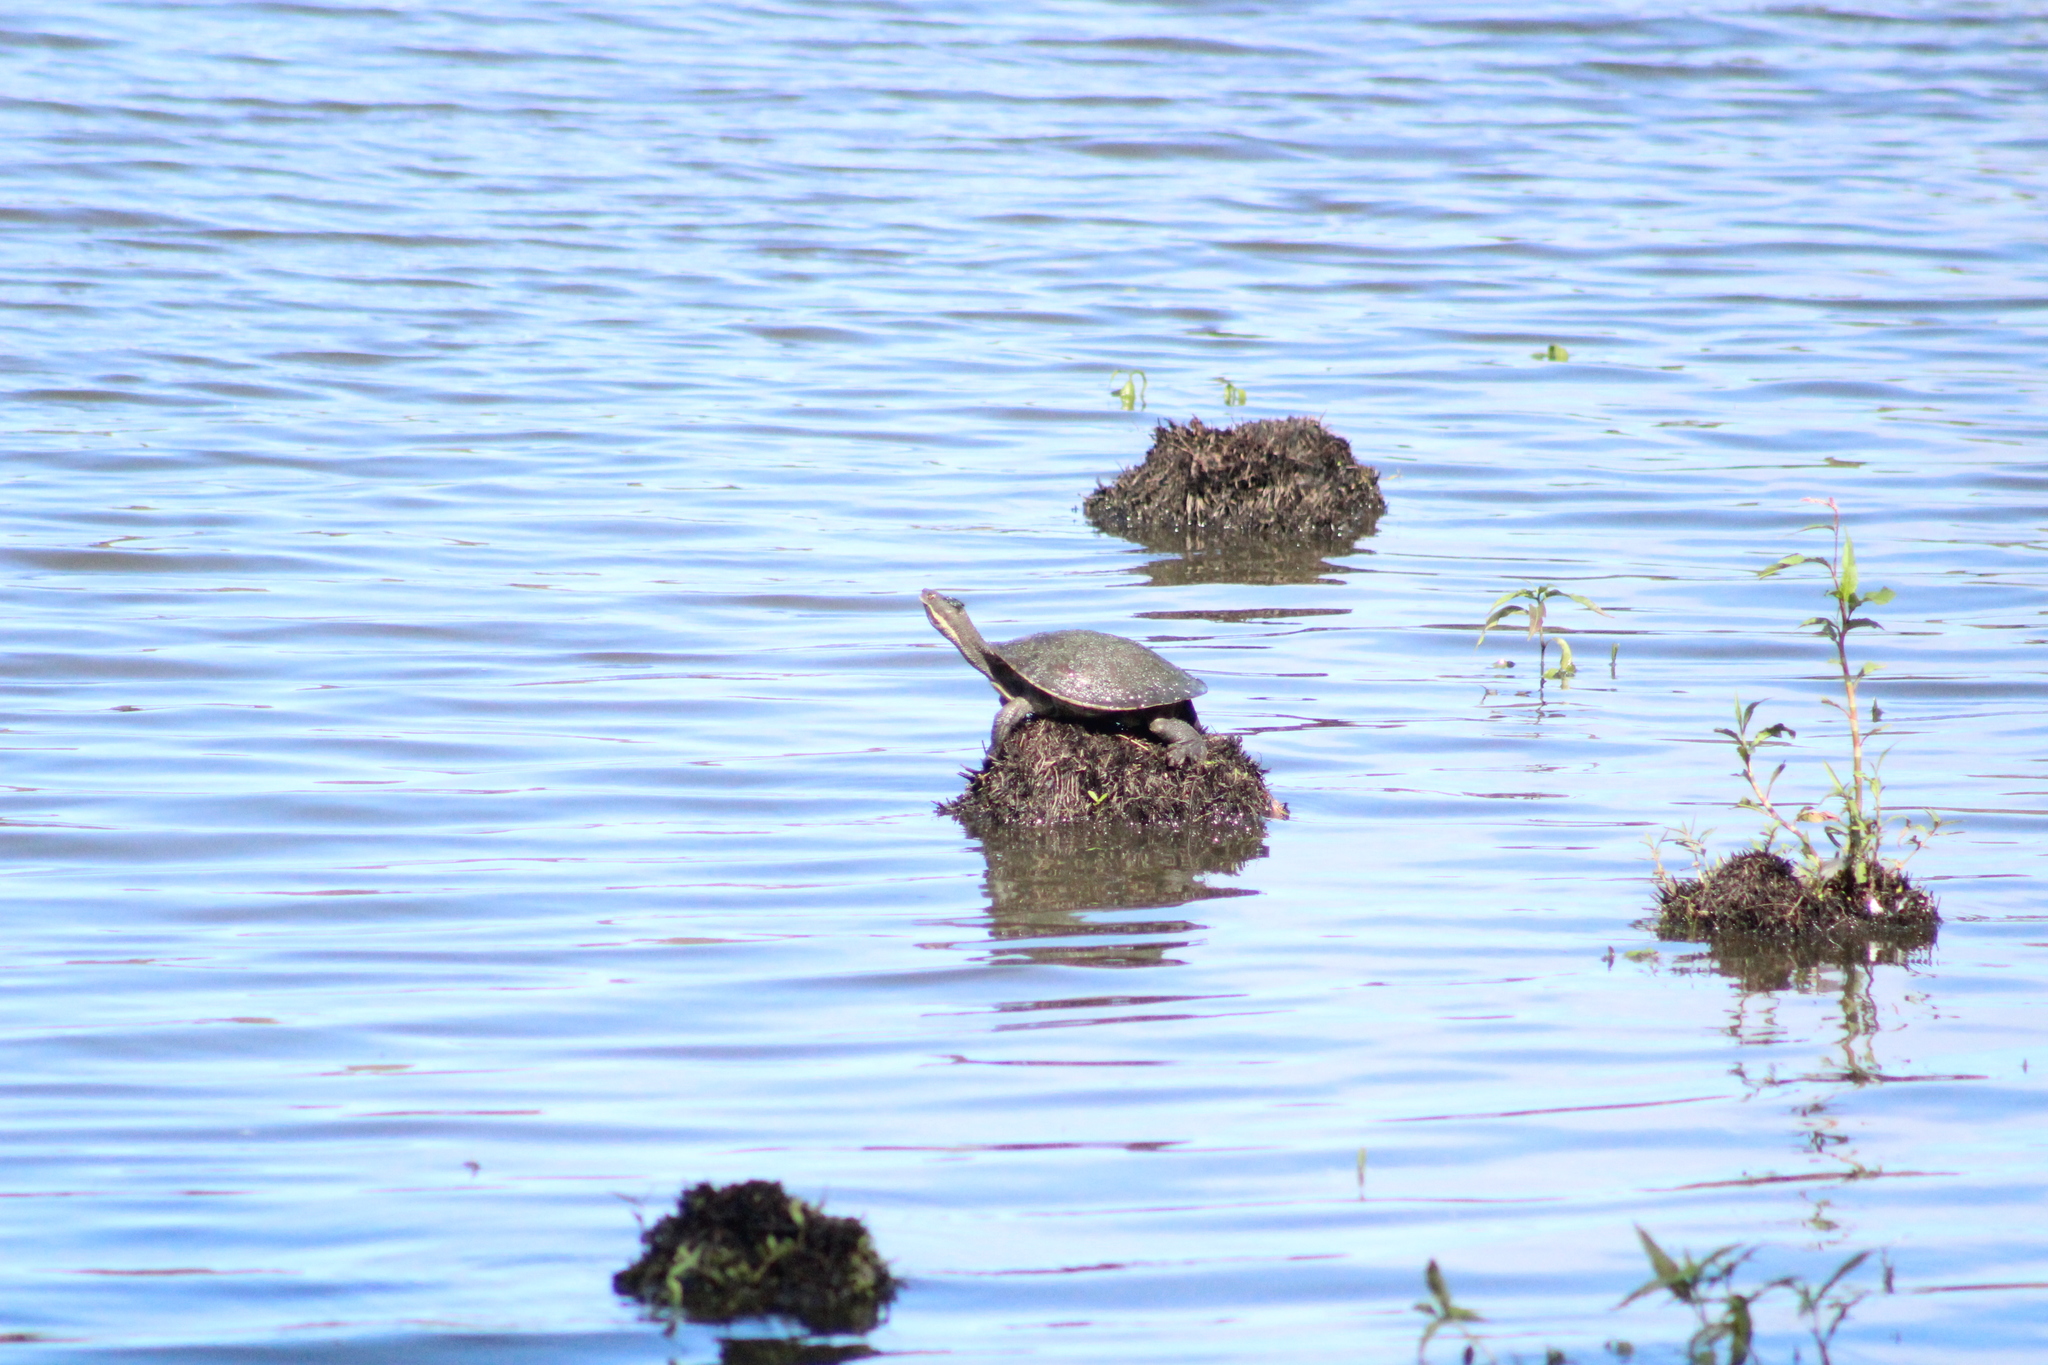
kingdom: Animalia
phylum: Chordata
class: Testudines
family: Chelidae
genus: Emydura
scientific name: Emydura macquarii
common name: Murray river turtle
